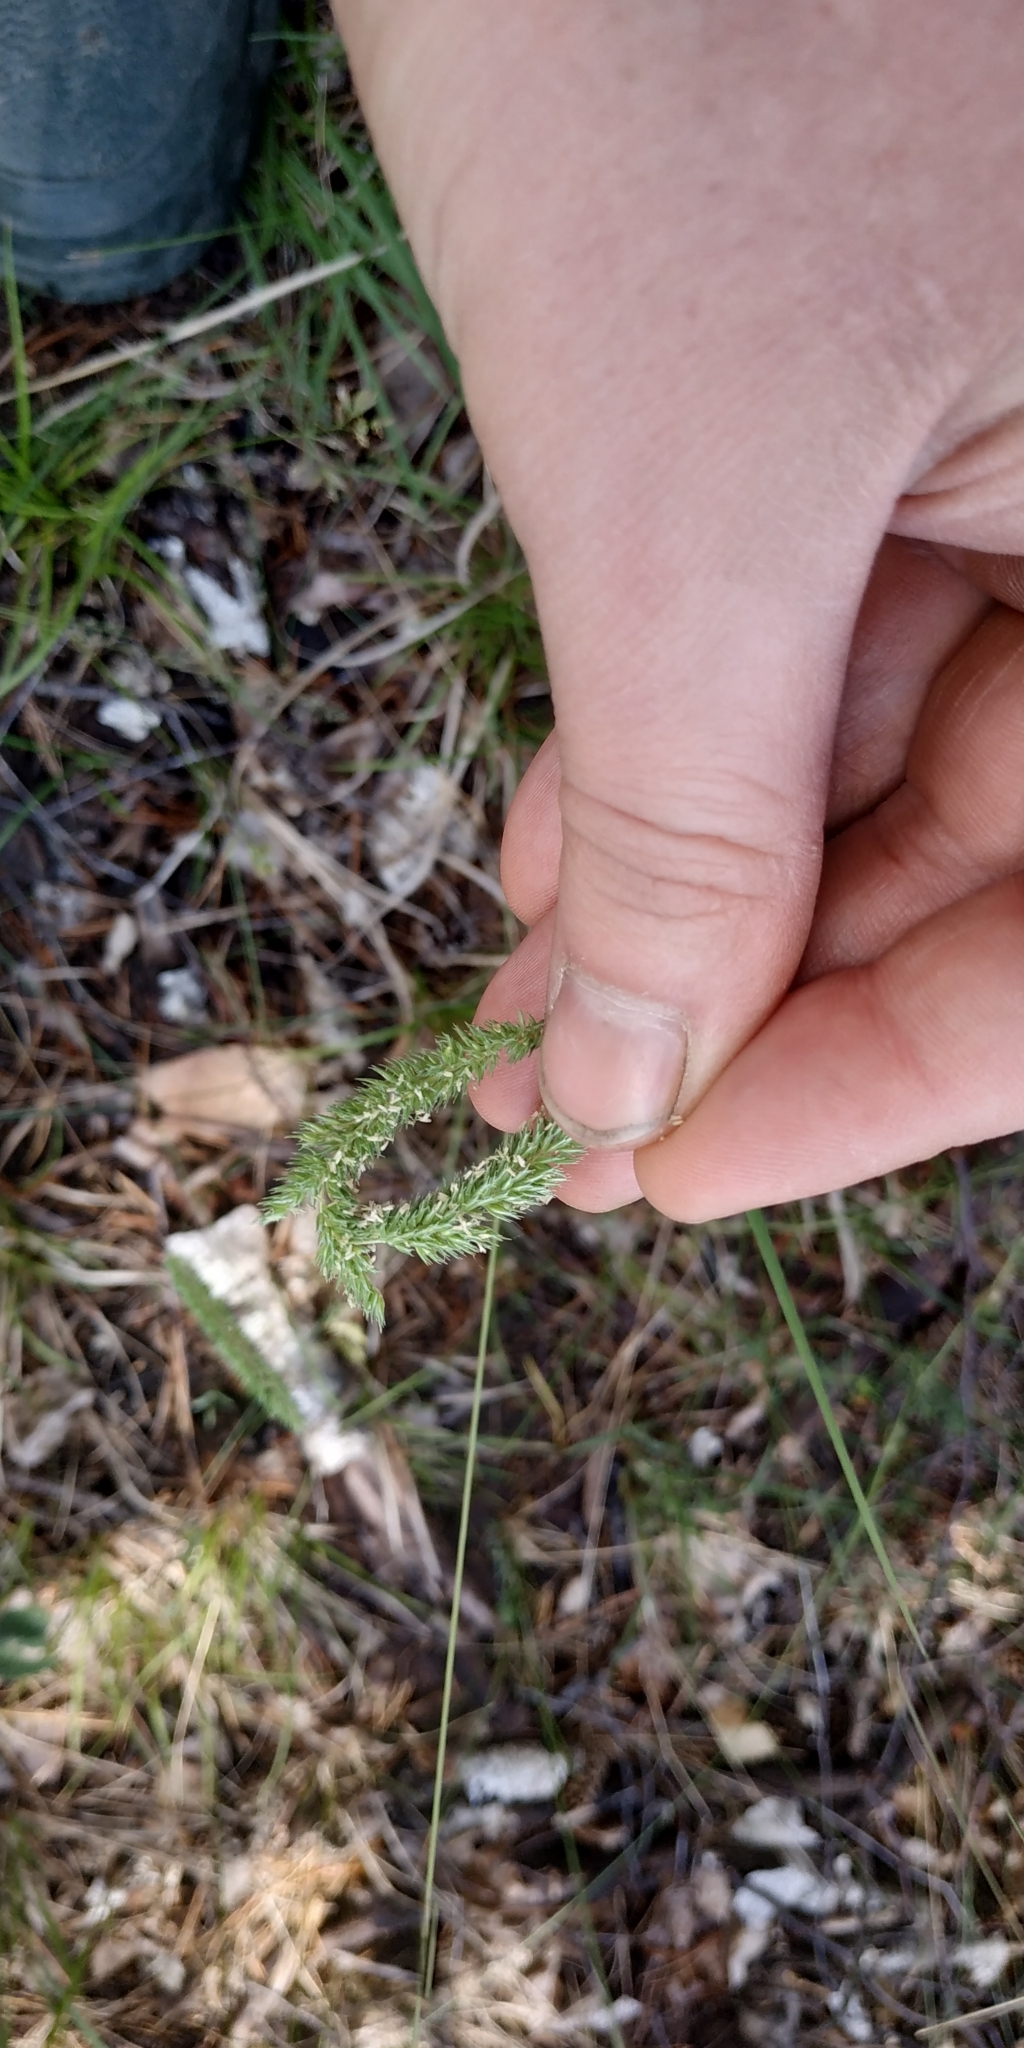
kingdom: Plantae
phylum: Tracheophyta
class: Liliopsida
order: Poales
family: Poaceae
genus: Phleum
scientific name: Phleum phleoides
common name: Purple-stem cat's-tail
